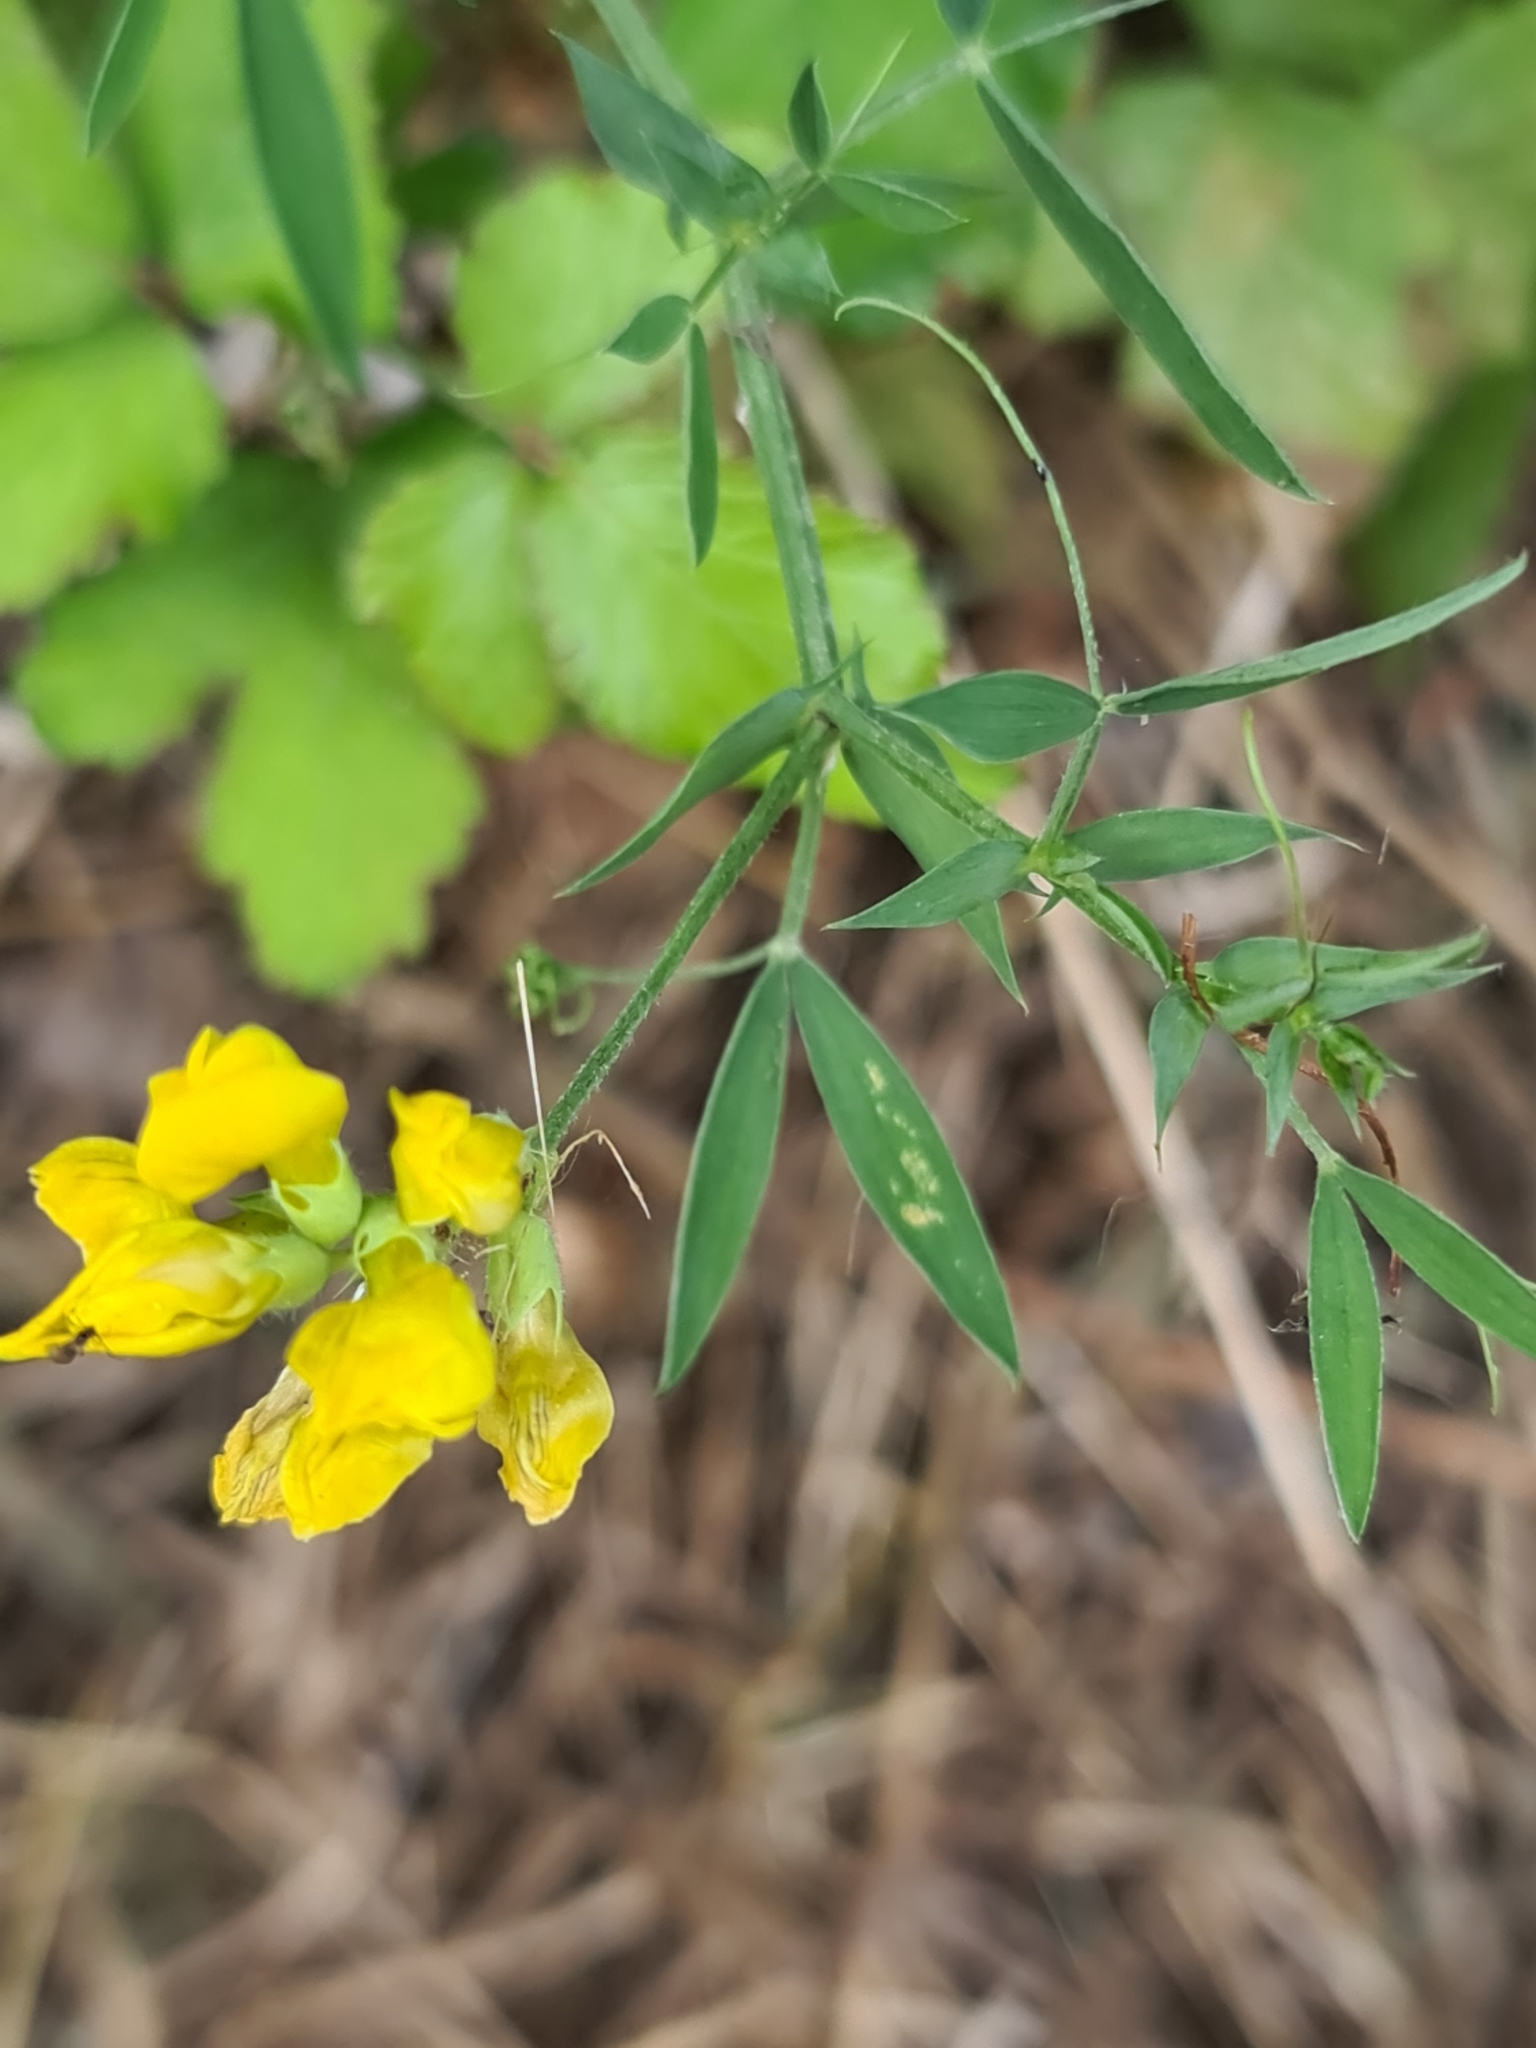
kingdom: Plantae
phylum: Tracheophyta
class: Magnoliopsida
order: Fabales
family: Fabaceae
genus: Lathyrus
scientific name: Lathyrus pratensis
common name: Meadow vetchling
